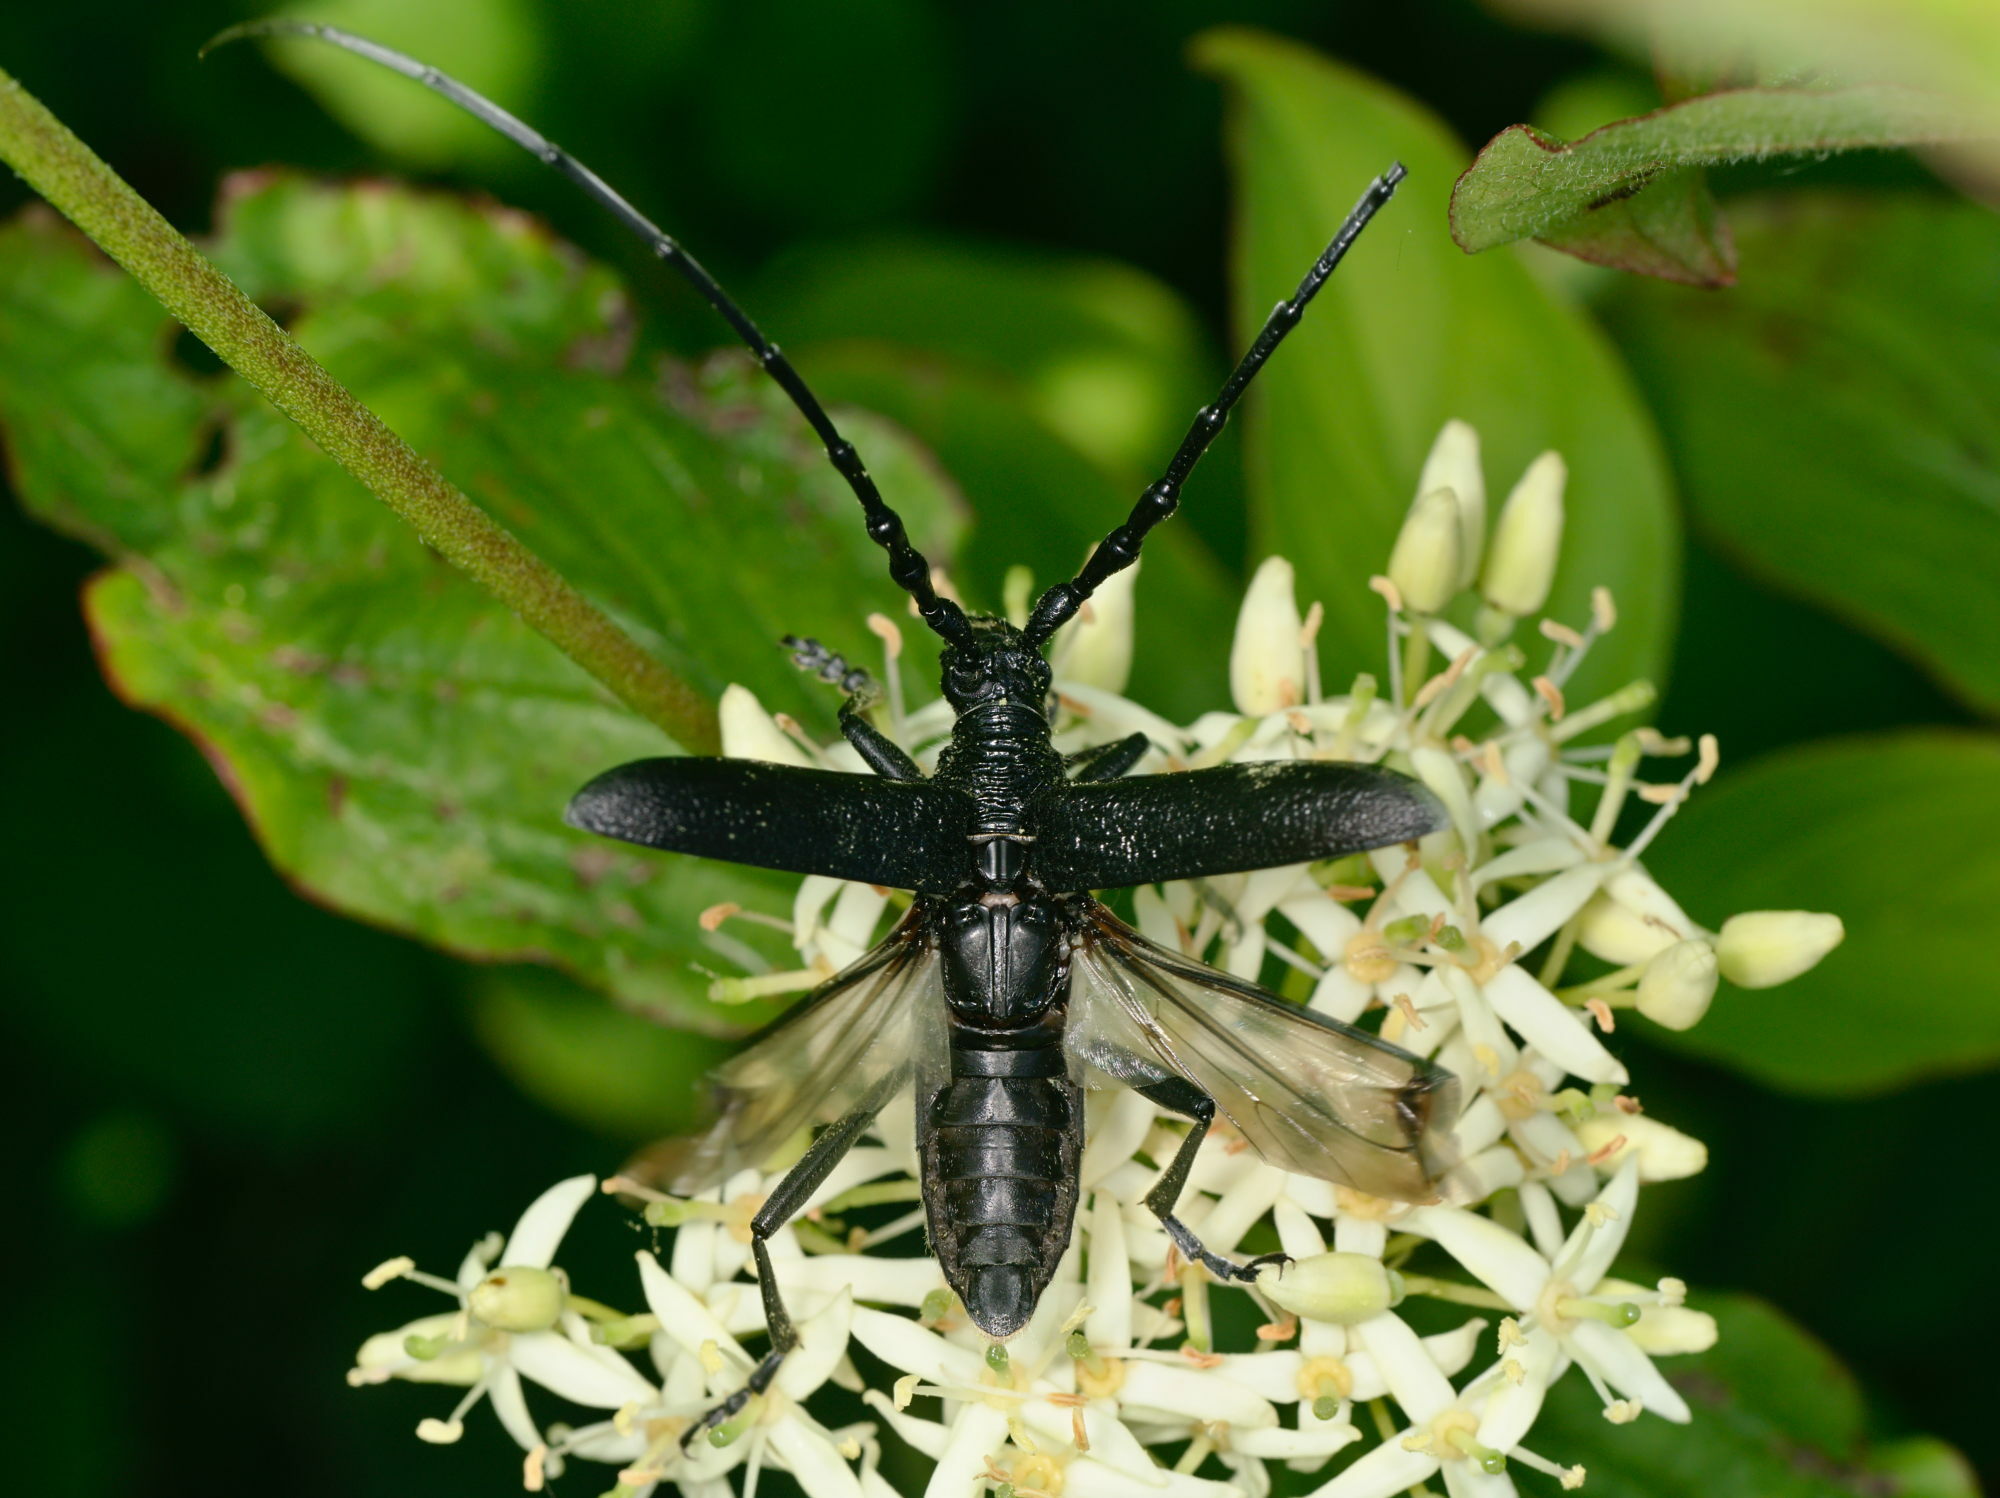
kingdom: Animalia
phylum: Arthropoda
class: Insecta
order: Coleoptera
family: Cerambycidae
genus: Cerambyx
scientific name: Cerambyx scopolii
